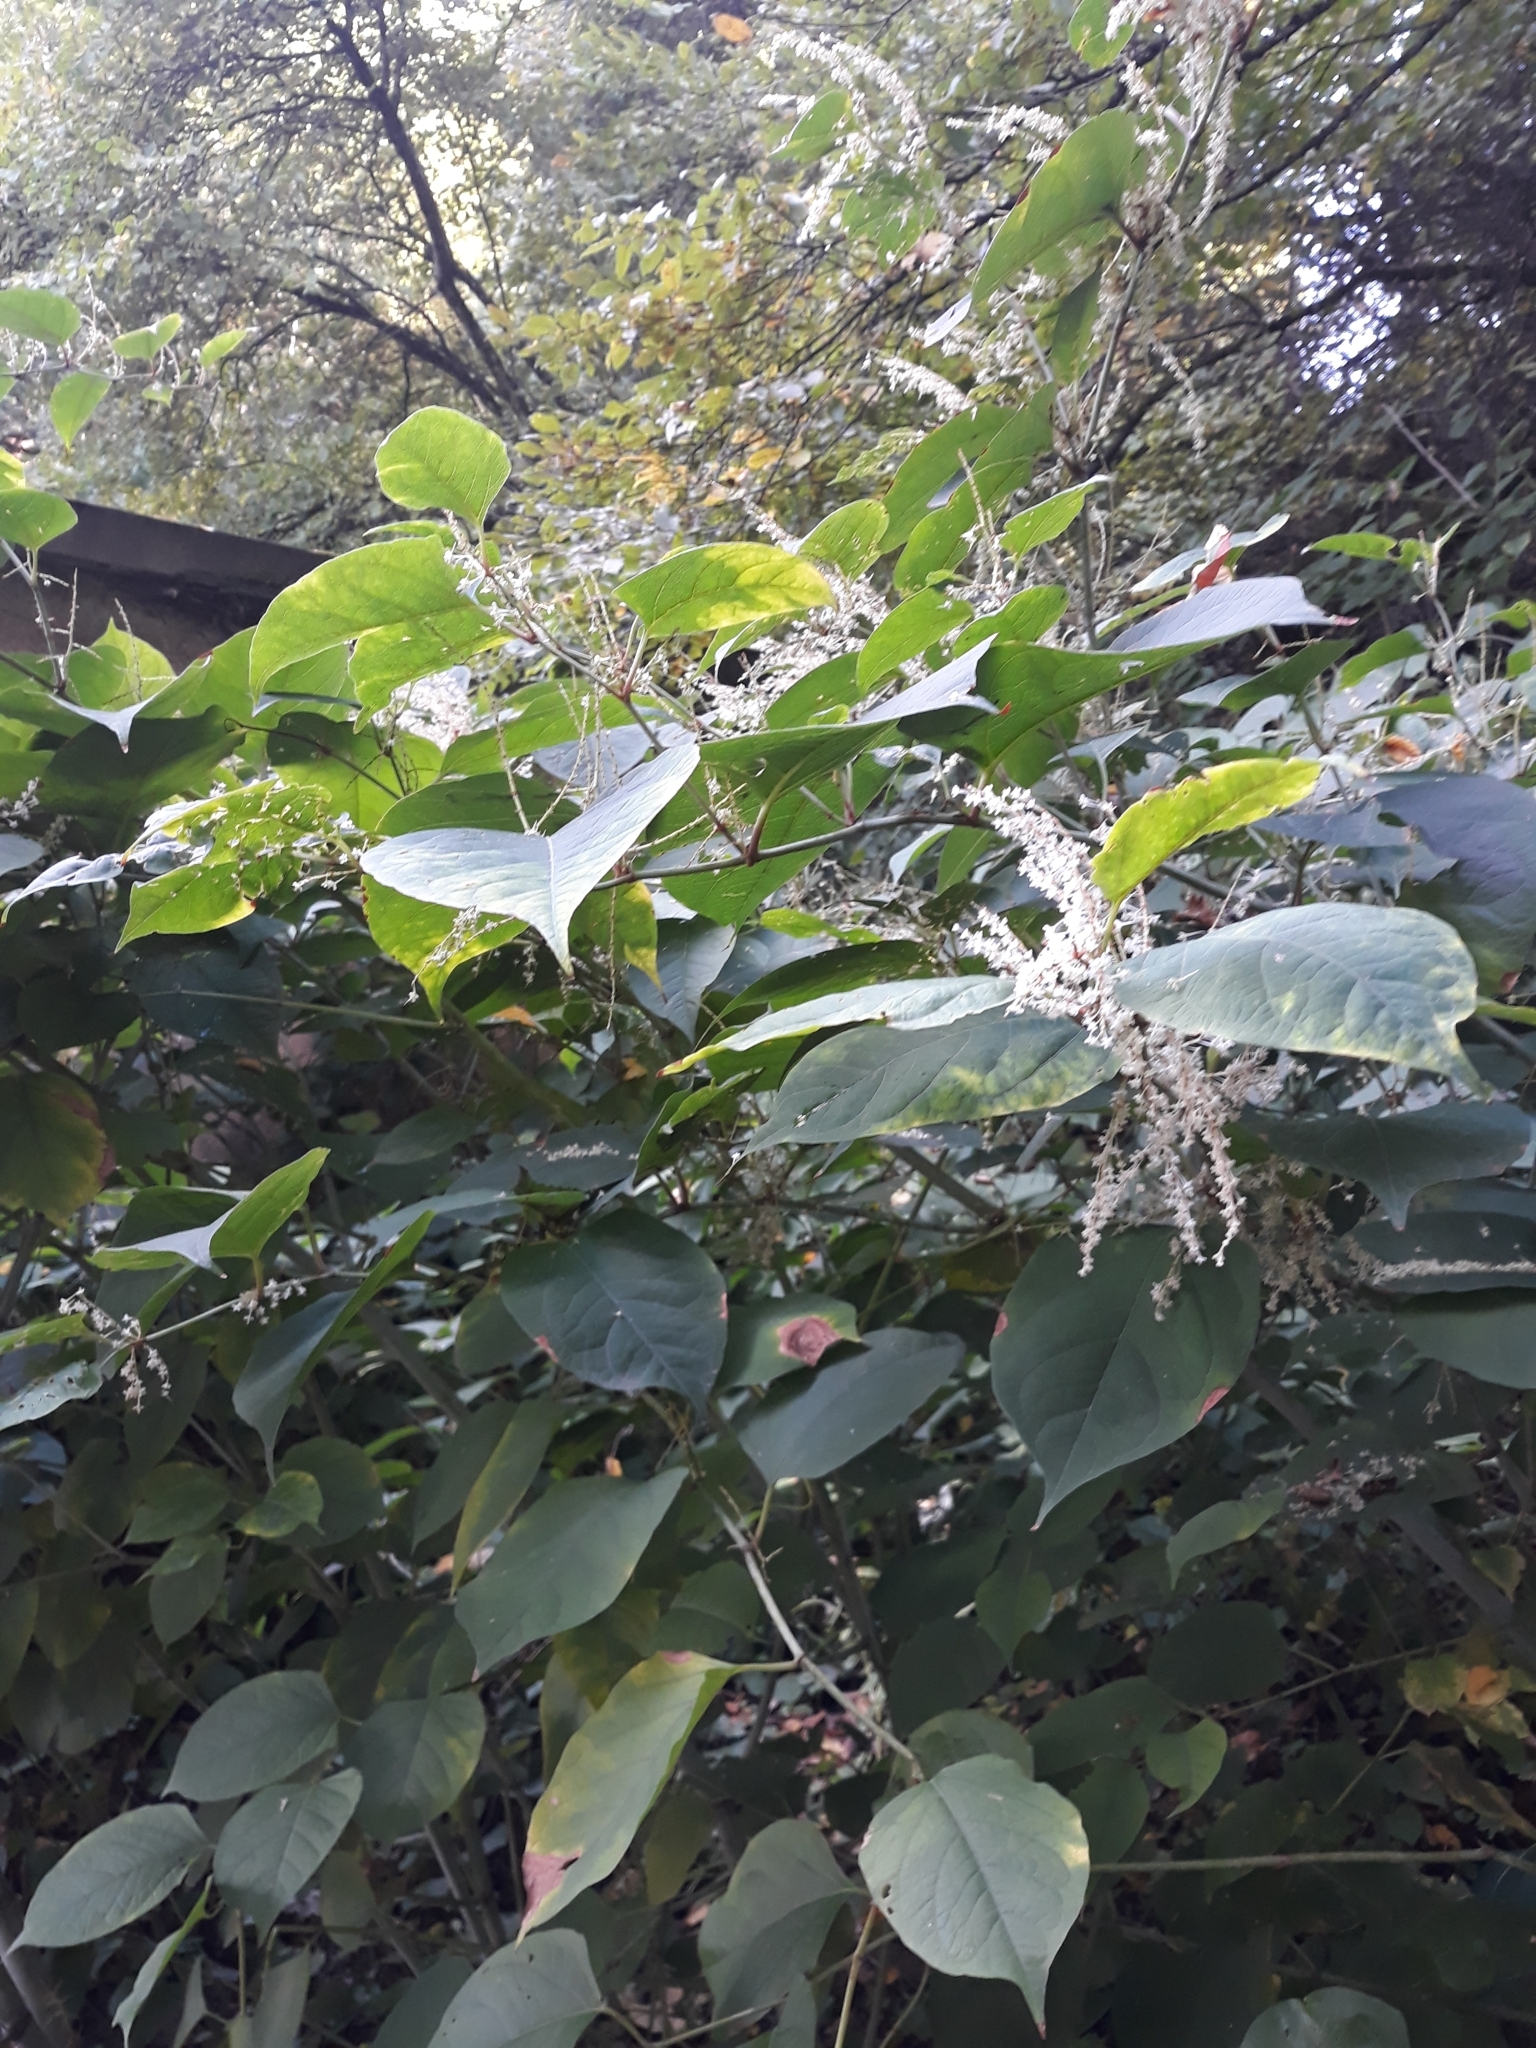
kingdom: Plantae
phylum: Tracheophyta
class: Magnoliopsida
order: Caryophyllales
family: Polygonaceae
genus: Reynoutria
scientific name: Reynoutria japonica
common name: Japanese knotweed
